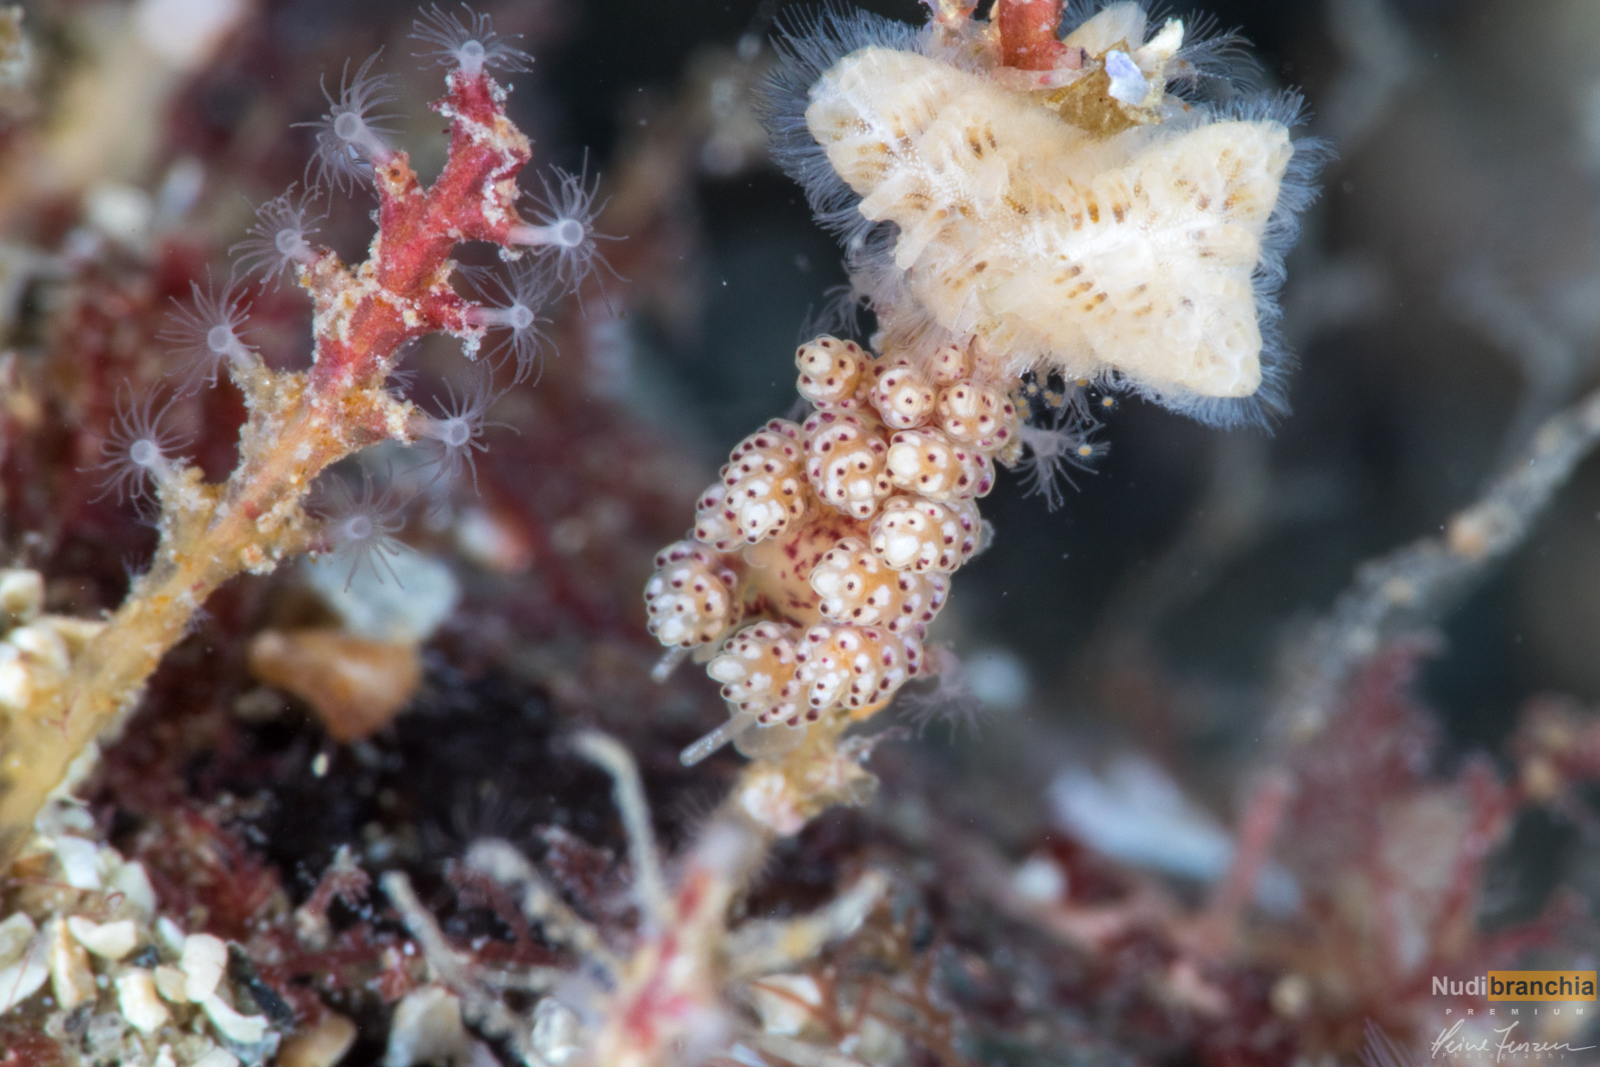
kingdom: Animalia
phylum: Mollusca
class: Gastropoda
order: Nudibranchia
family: Dotidae
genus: Doto
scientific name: Doto coronata
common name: Coronate doto
